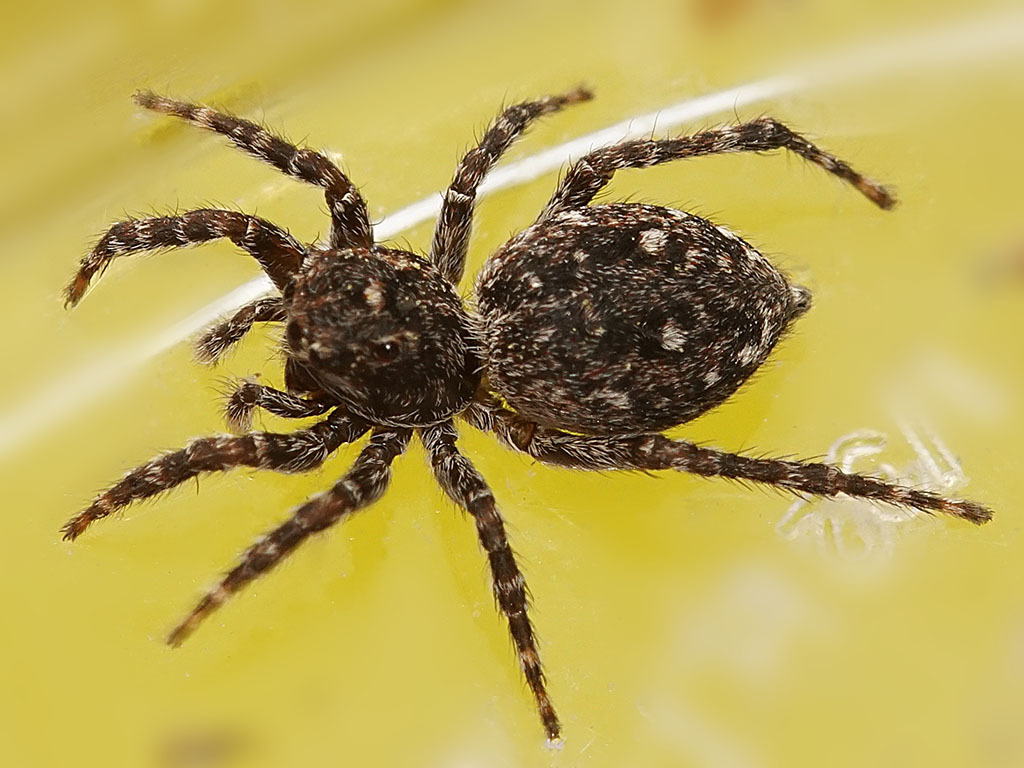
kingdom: Animalia
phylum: Arthropoda
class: Arachnida
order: Araneae
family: Salticidae
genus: Attulus
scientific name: Attulus pubescens
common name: Jumping spider
